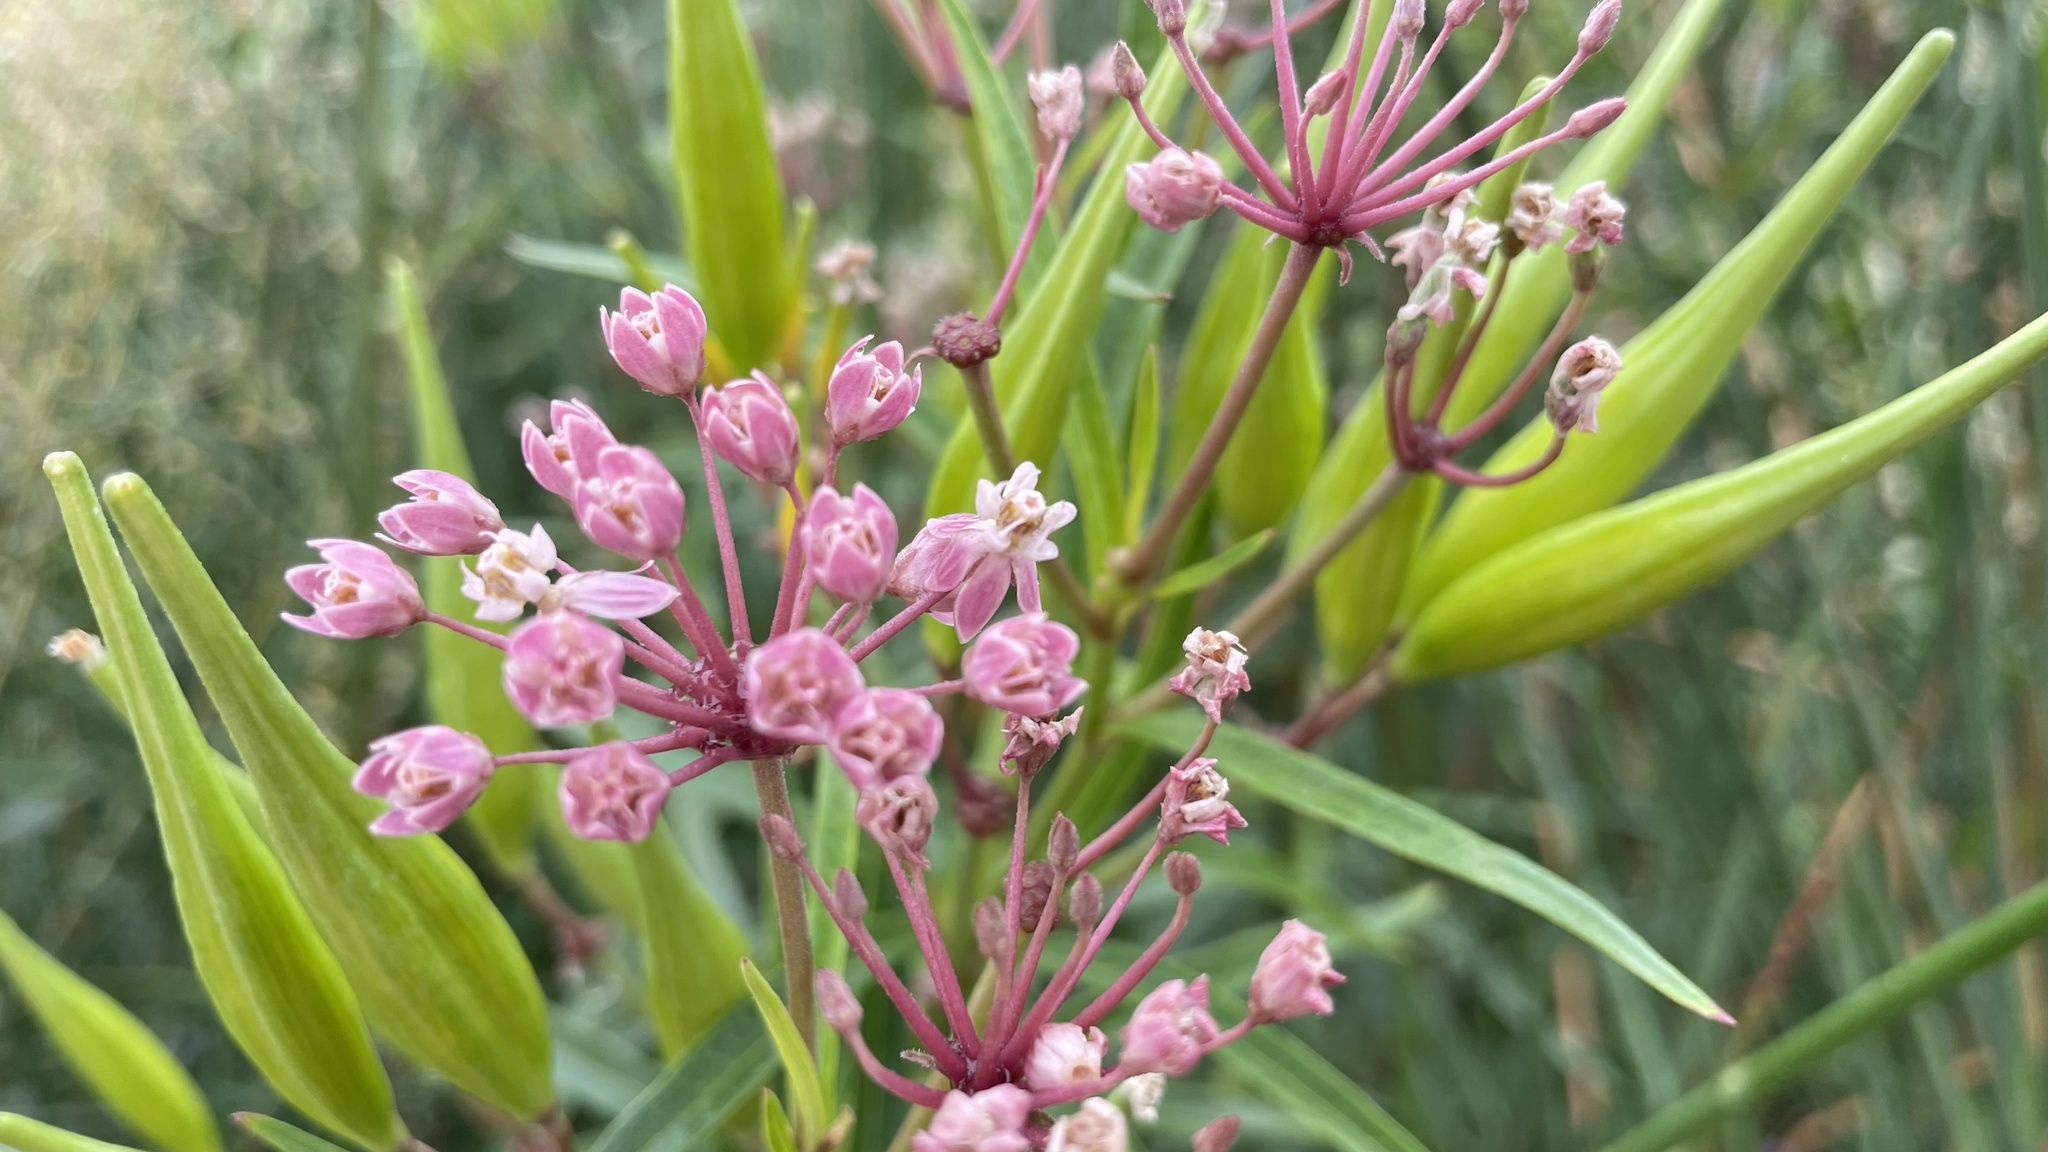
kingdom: Plantae
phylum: Tracheophyta
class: Magnoliopsida
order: Gentianales
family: Apocynaceae
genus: Asclepias
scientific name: Asclepias incarnata
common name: Swamp milkweed
